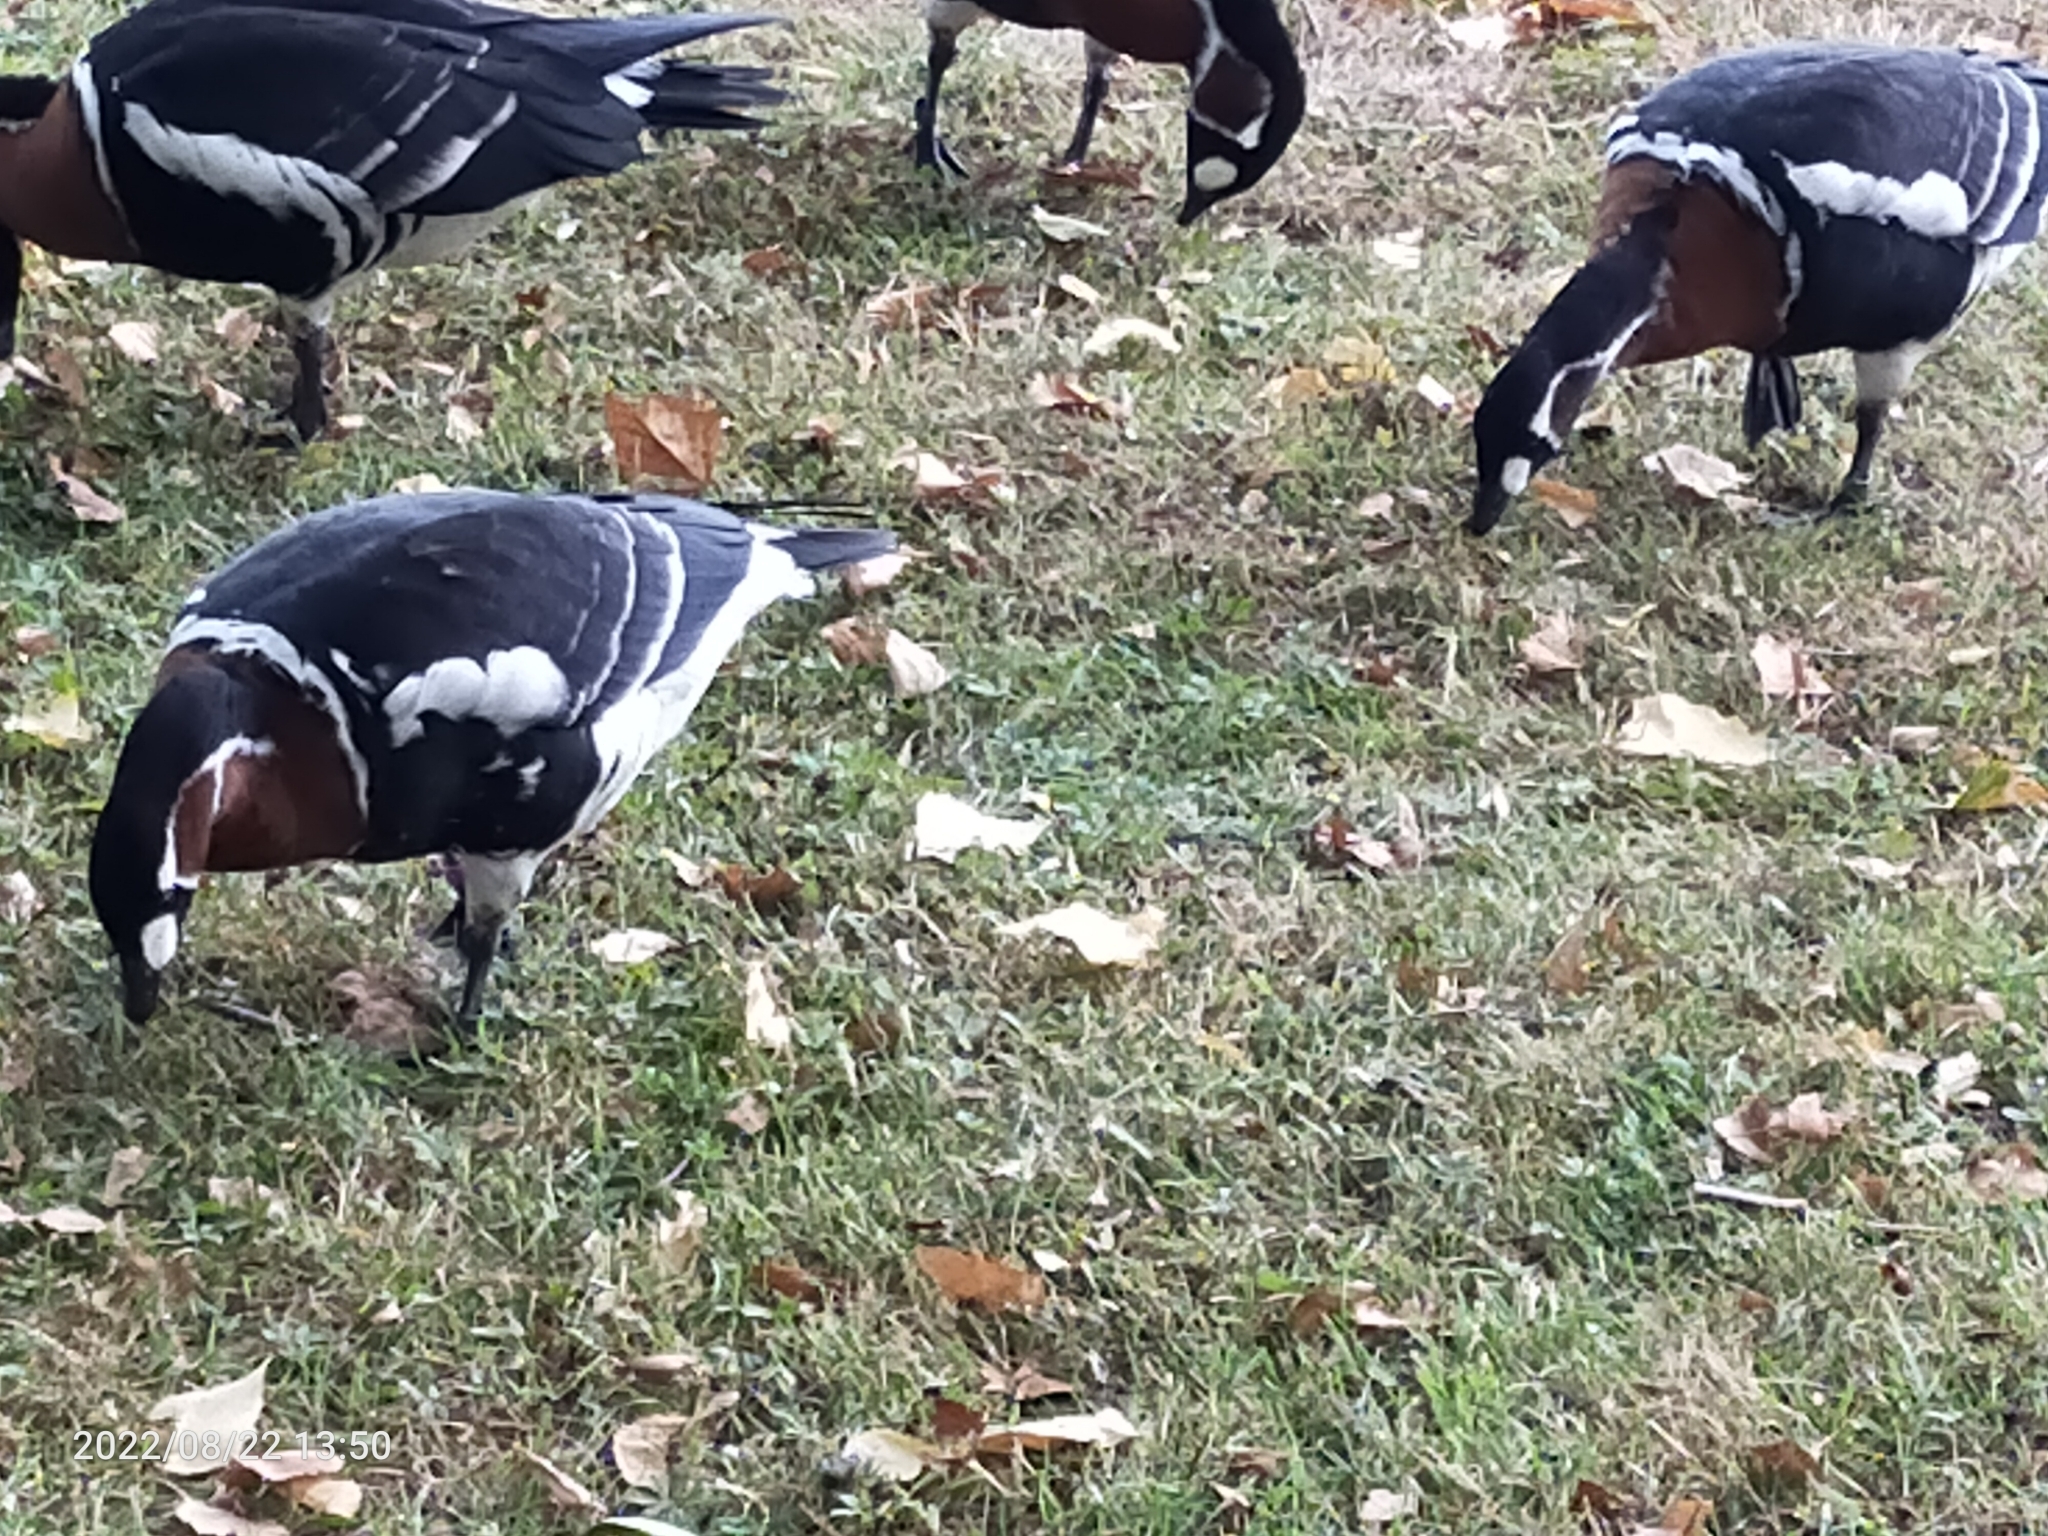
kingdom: Animalia
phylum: Chordata
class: Aves
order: Anseriformes
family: Anatidae
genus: Branta
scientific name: Branta ruficollis
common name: Red-breasted goose
